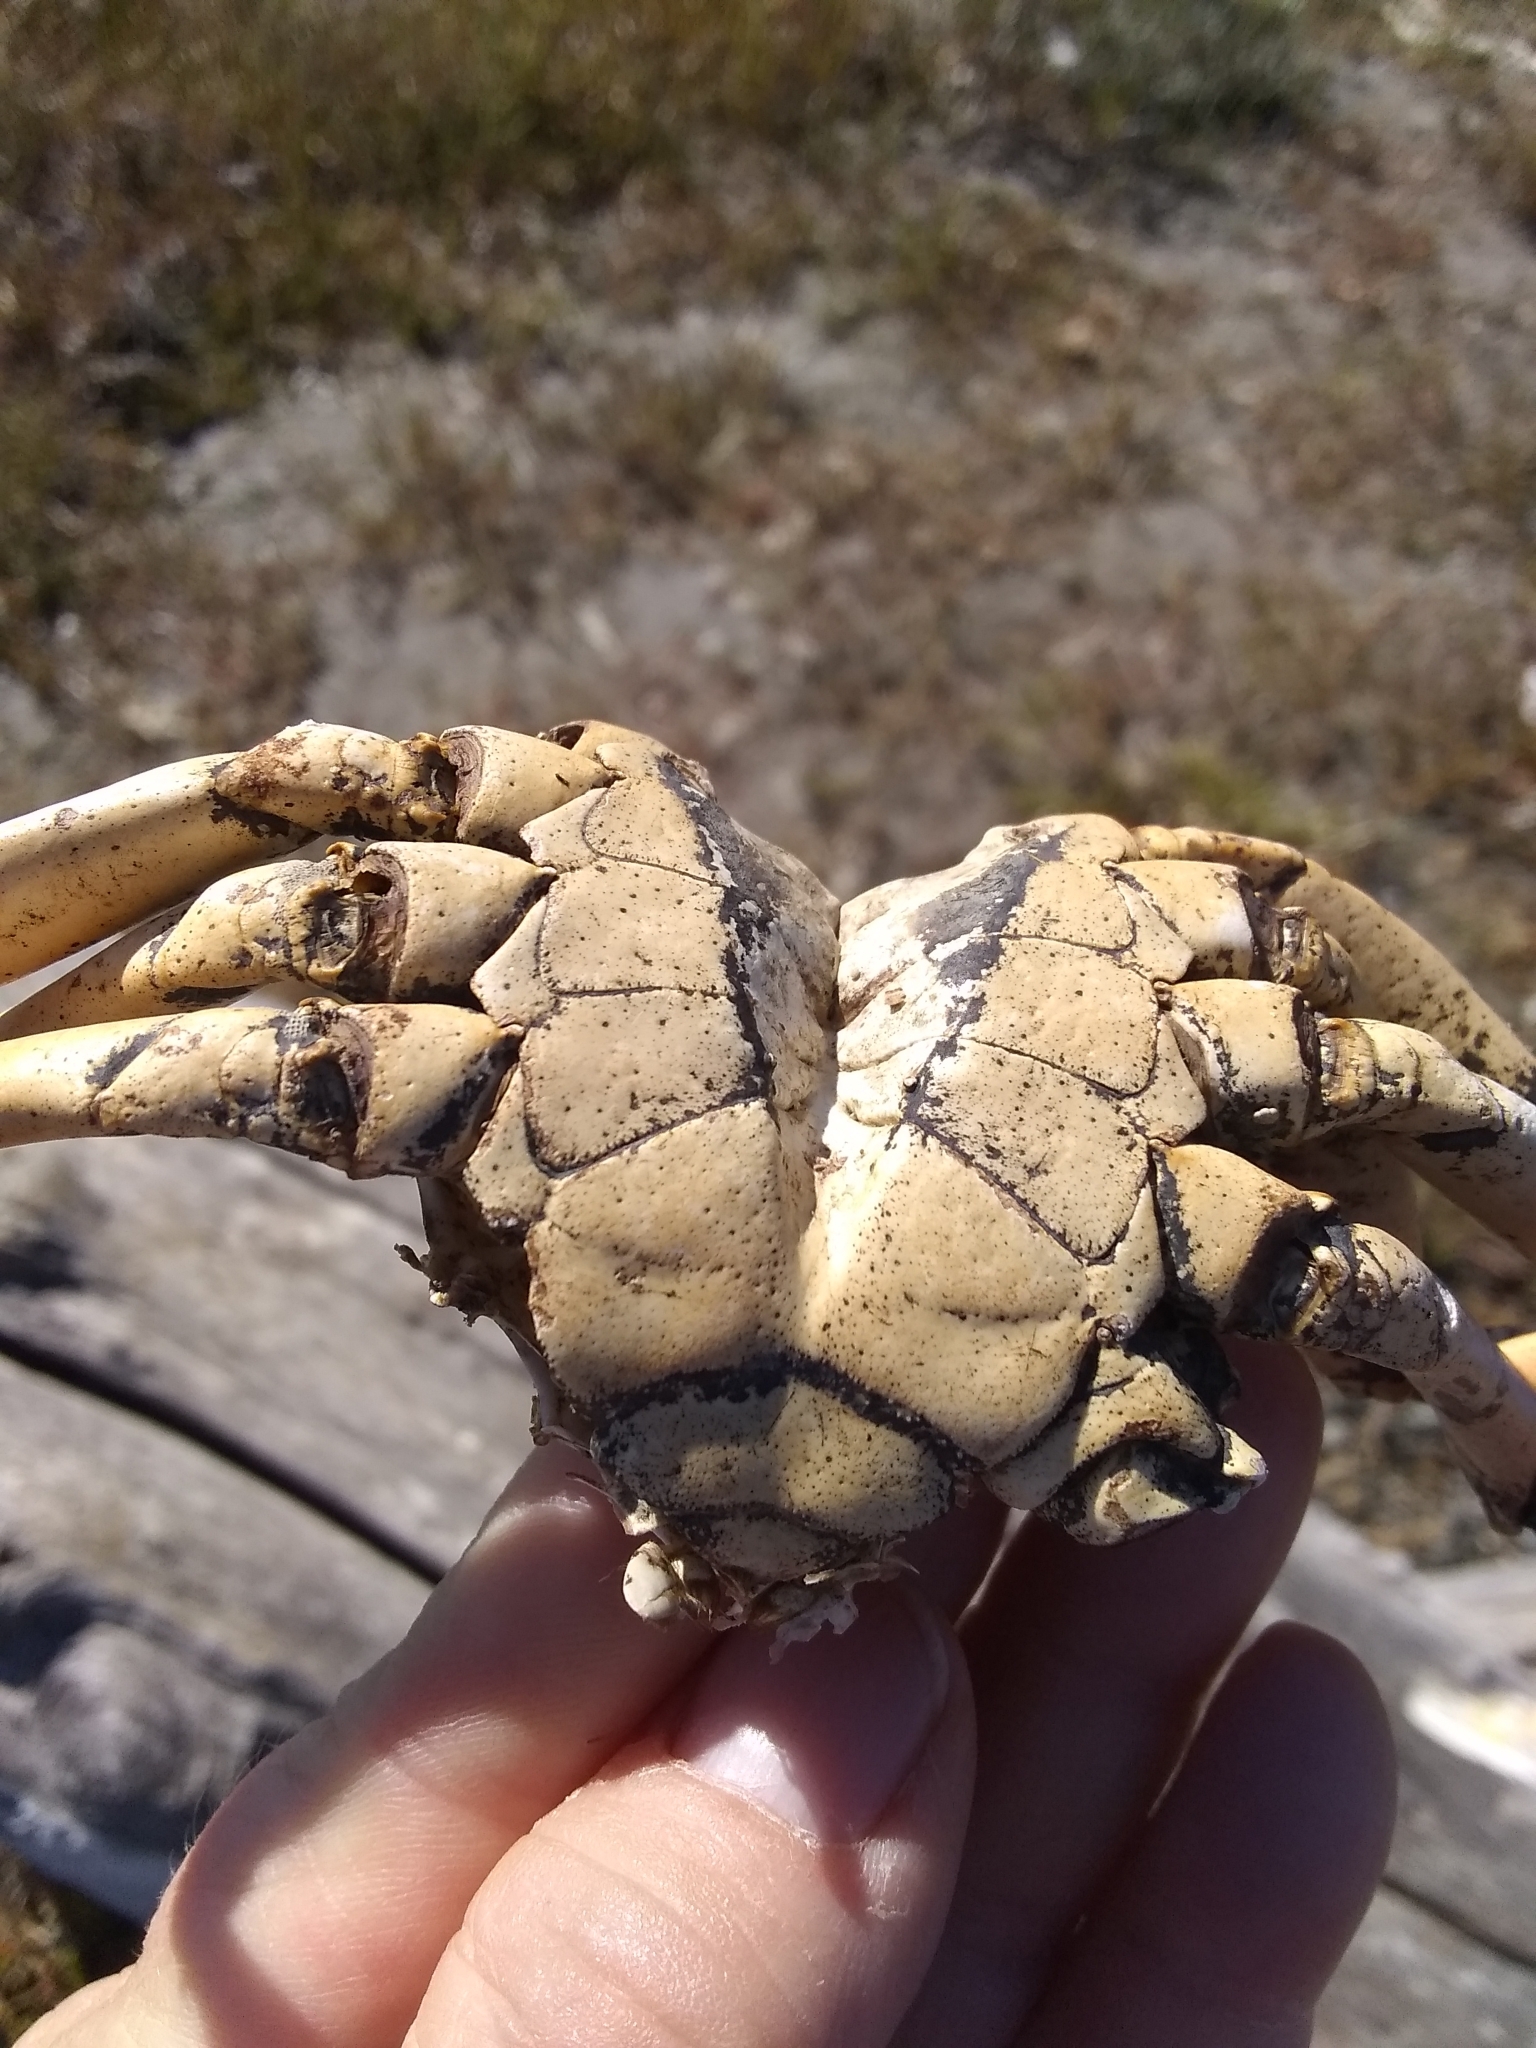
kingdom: Animalia
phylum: Arthropoda
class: Malacostraca
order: Decapoda
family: Carcinidae
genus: Carcinus
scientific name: Carcinus maenas
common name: European green crab
